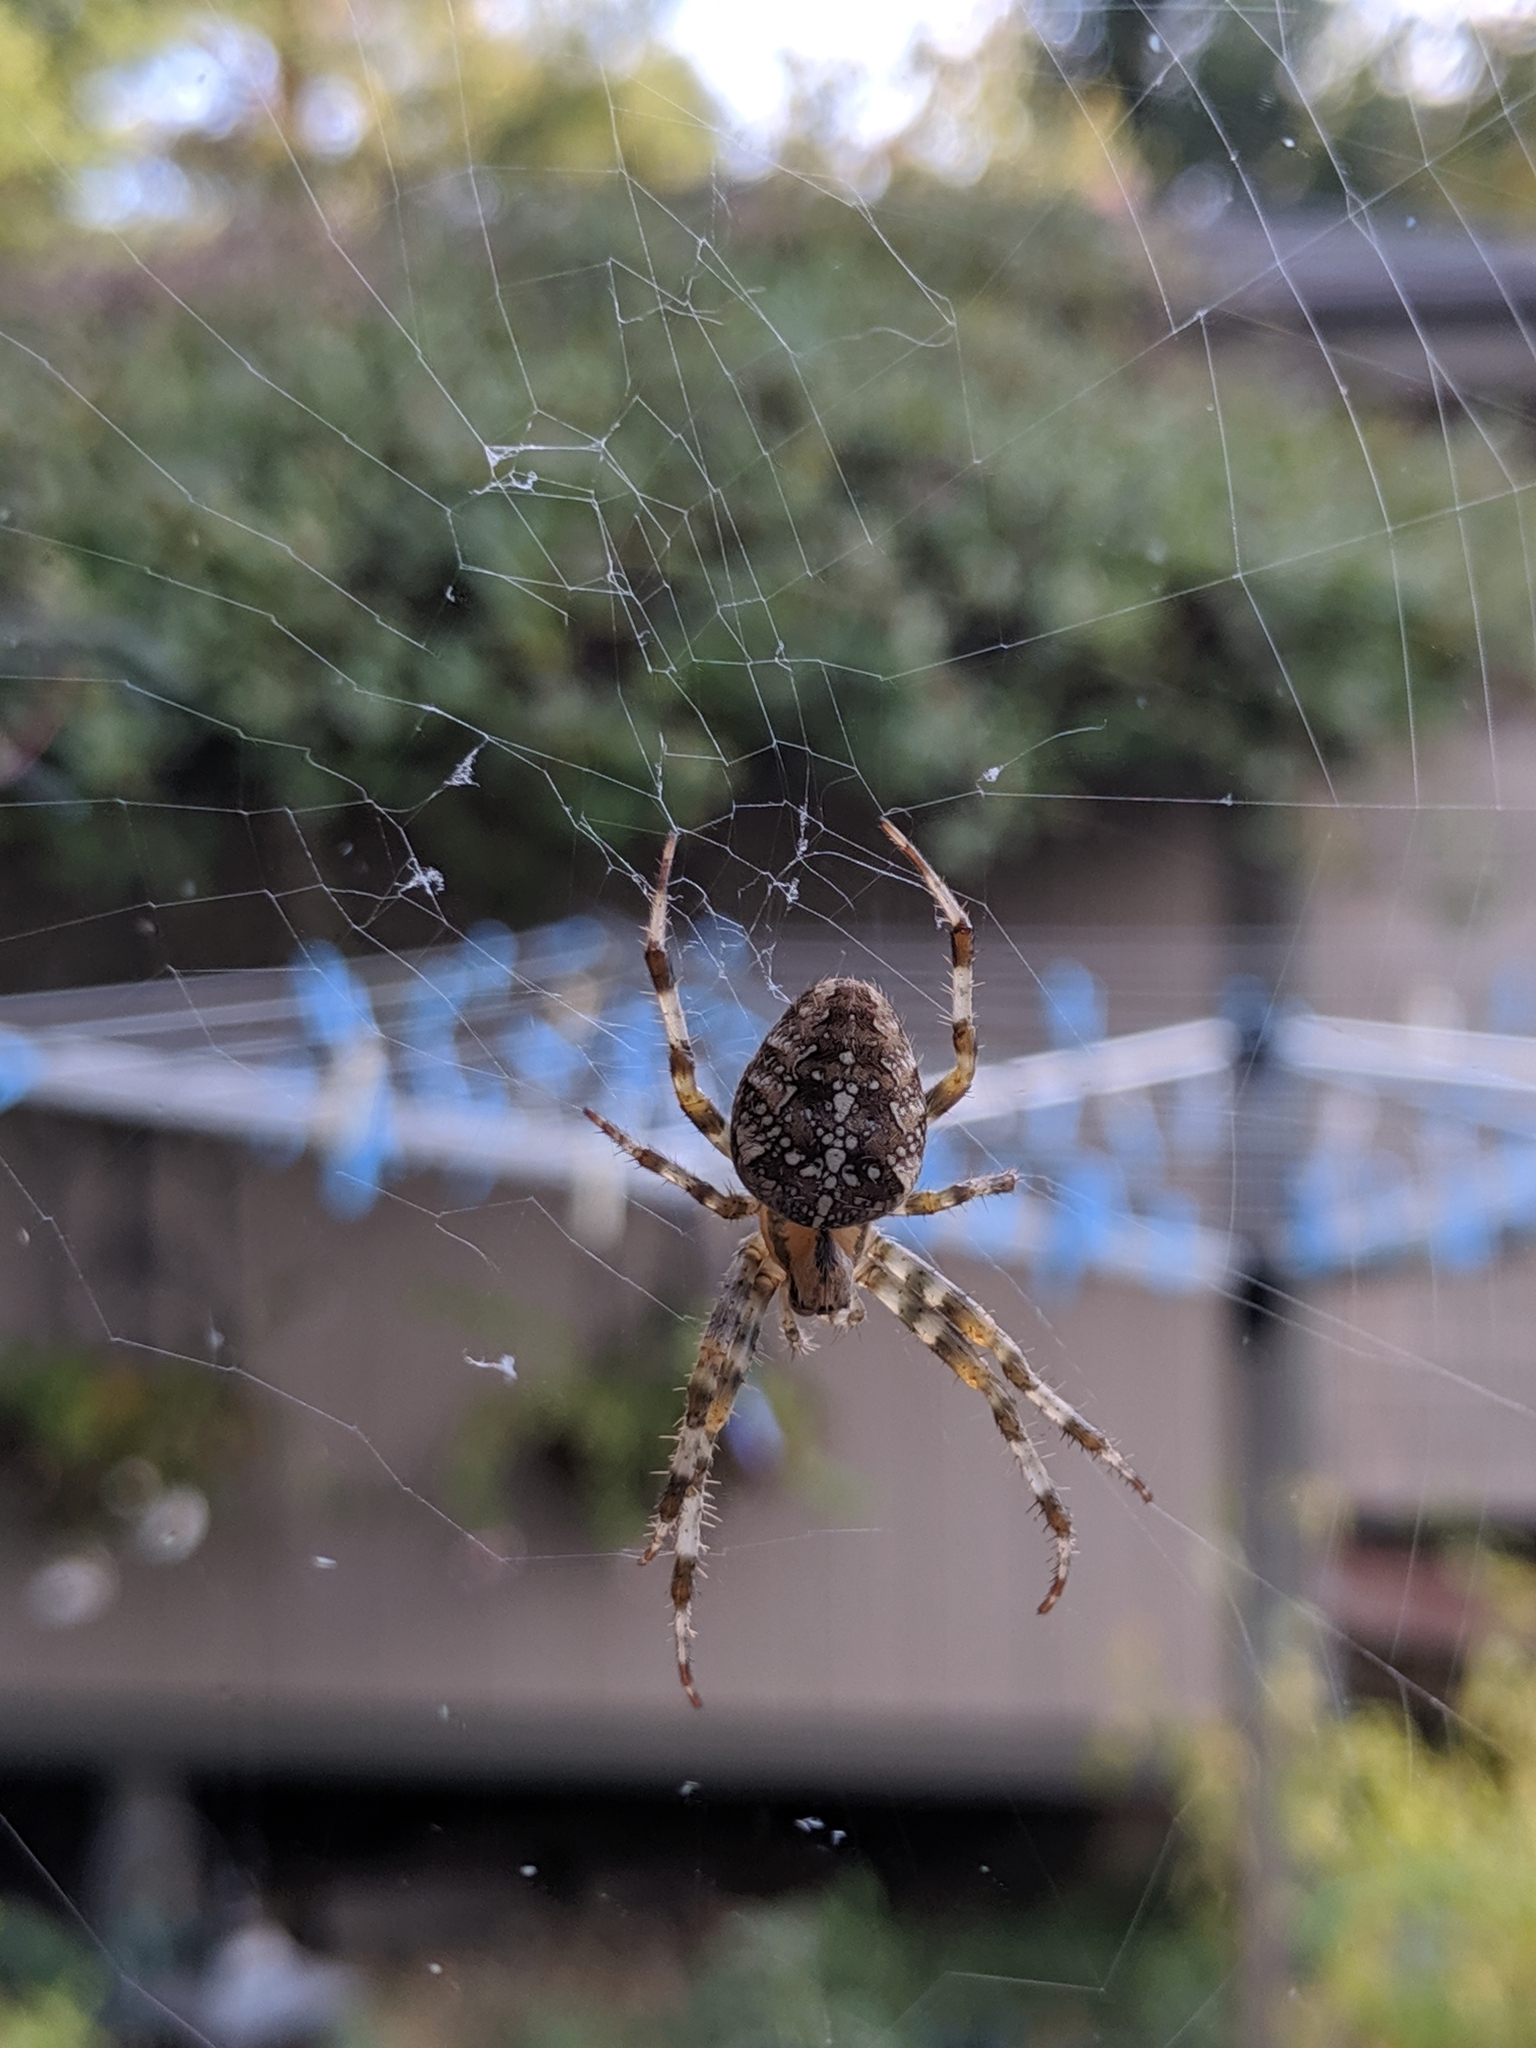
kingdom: Animalia
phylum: Arthropoda
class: Arachnida
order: Araneae
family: Araneidae
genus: Araneus
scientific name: Araneus diadematus
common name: Cross orbweaver
